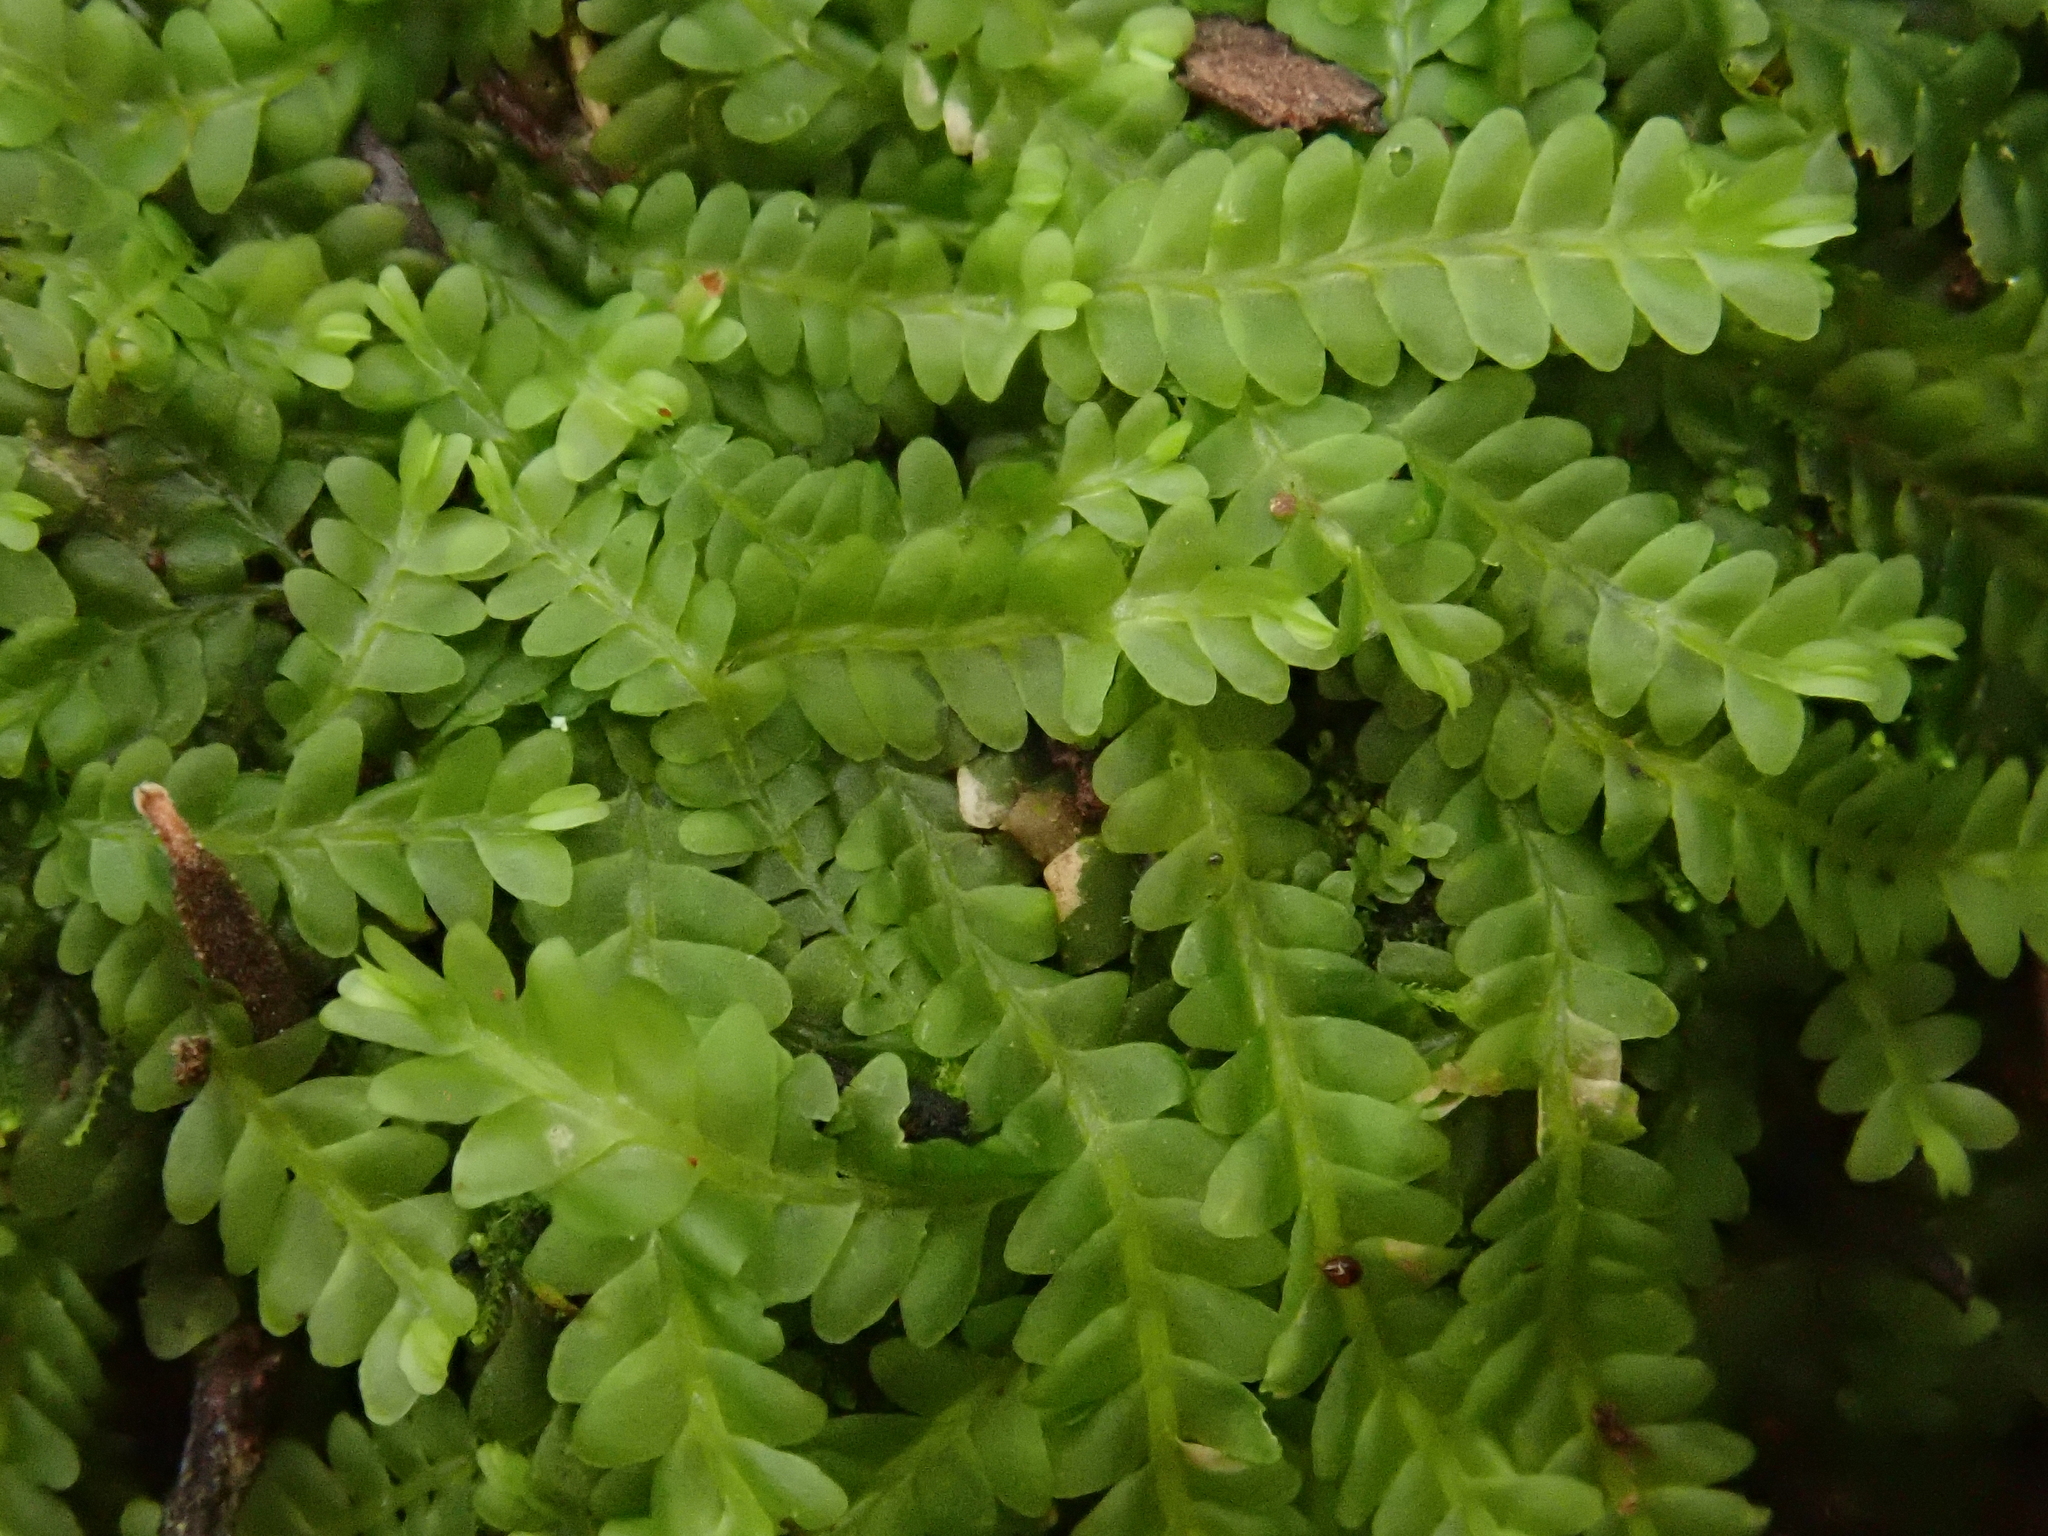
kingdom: Plantae
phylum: Marchantiophyta
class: Jungermanniopsida
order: Jungermanniales
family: Saccogynaceae
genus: Saccogyna
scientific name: Saccogyna viticulosa
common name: Straggling pouchwort
